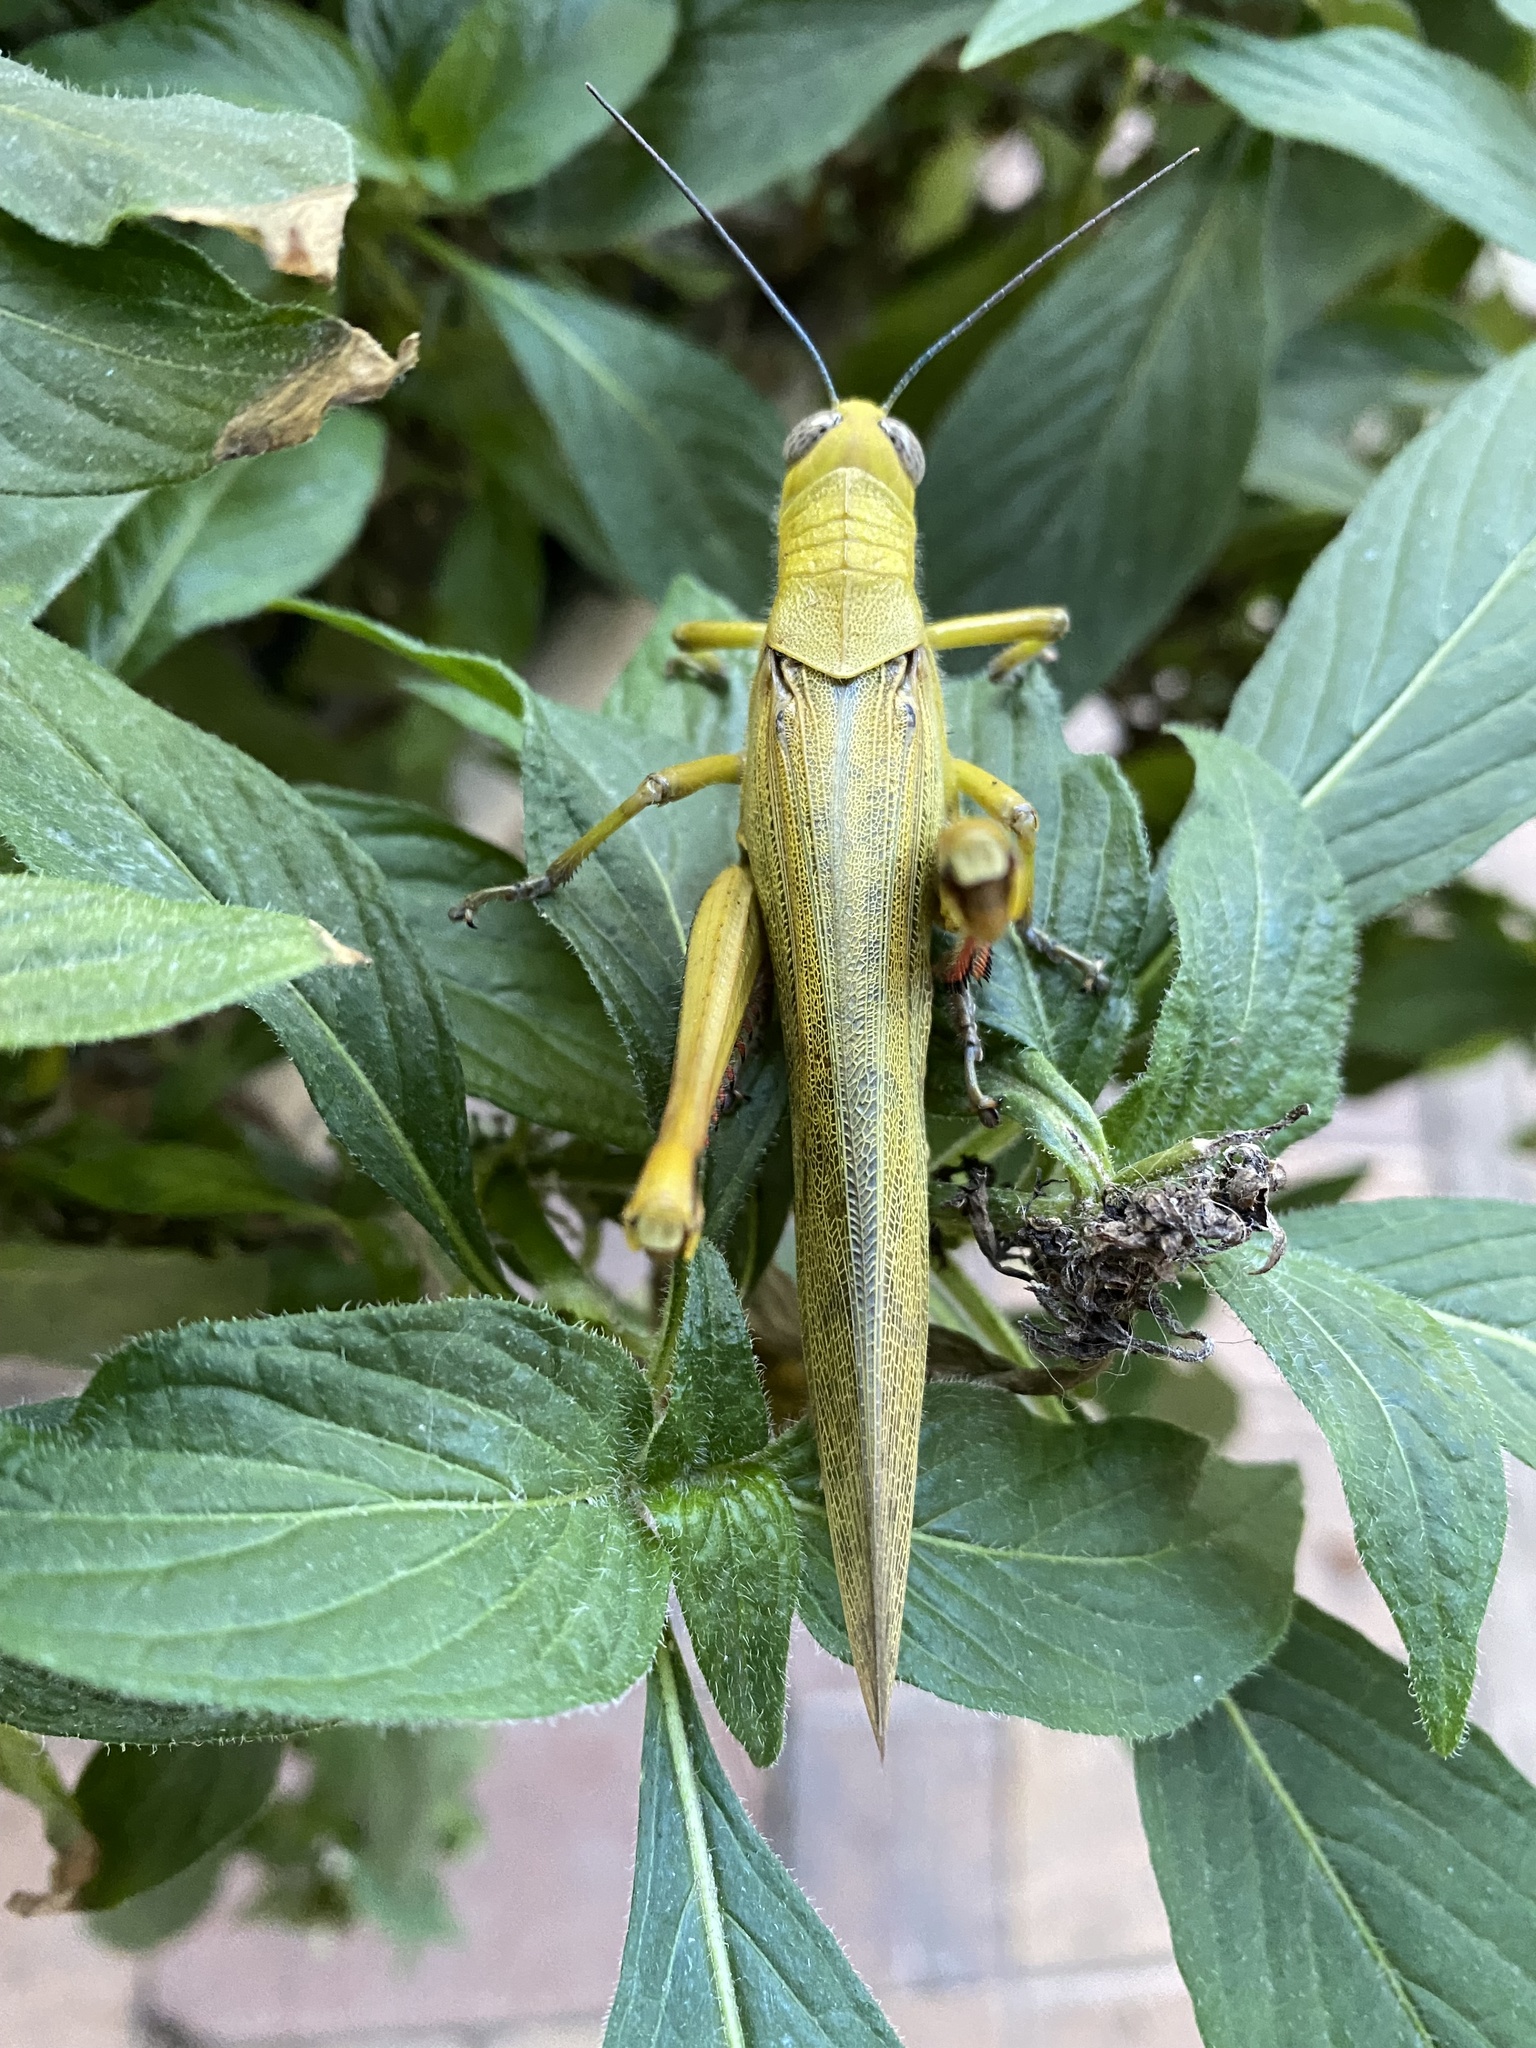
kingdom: Animalia
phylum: Arthropoda
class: Insecta
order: Orthoptera
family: Acrididae
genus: Valanga
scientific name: Valanga irregularis
